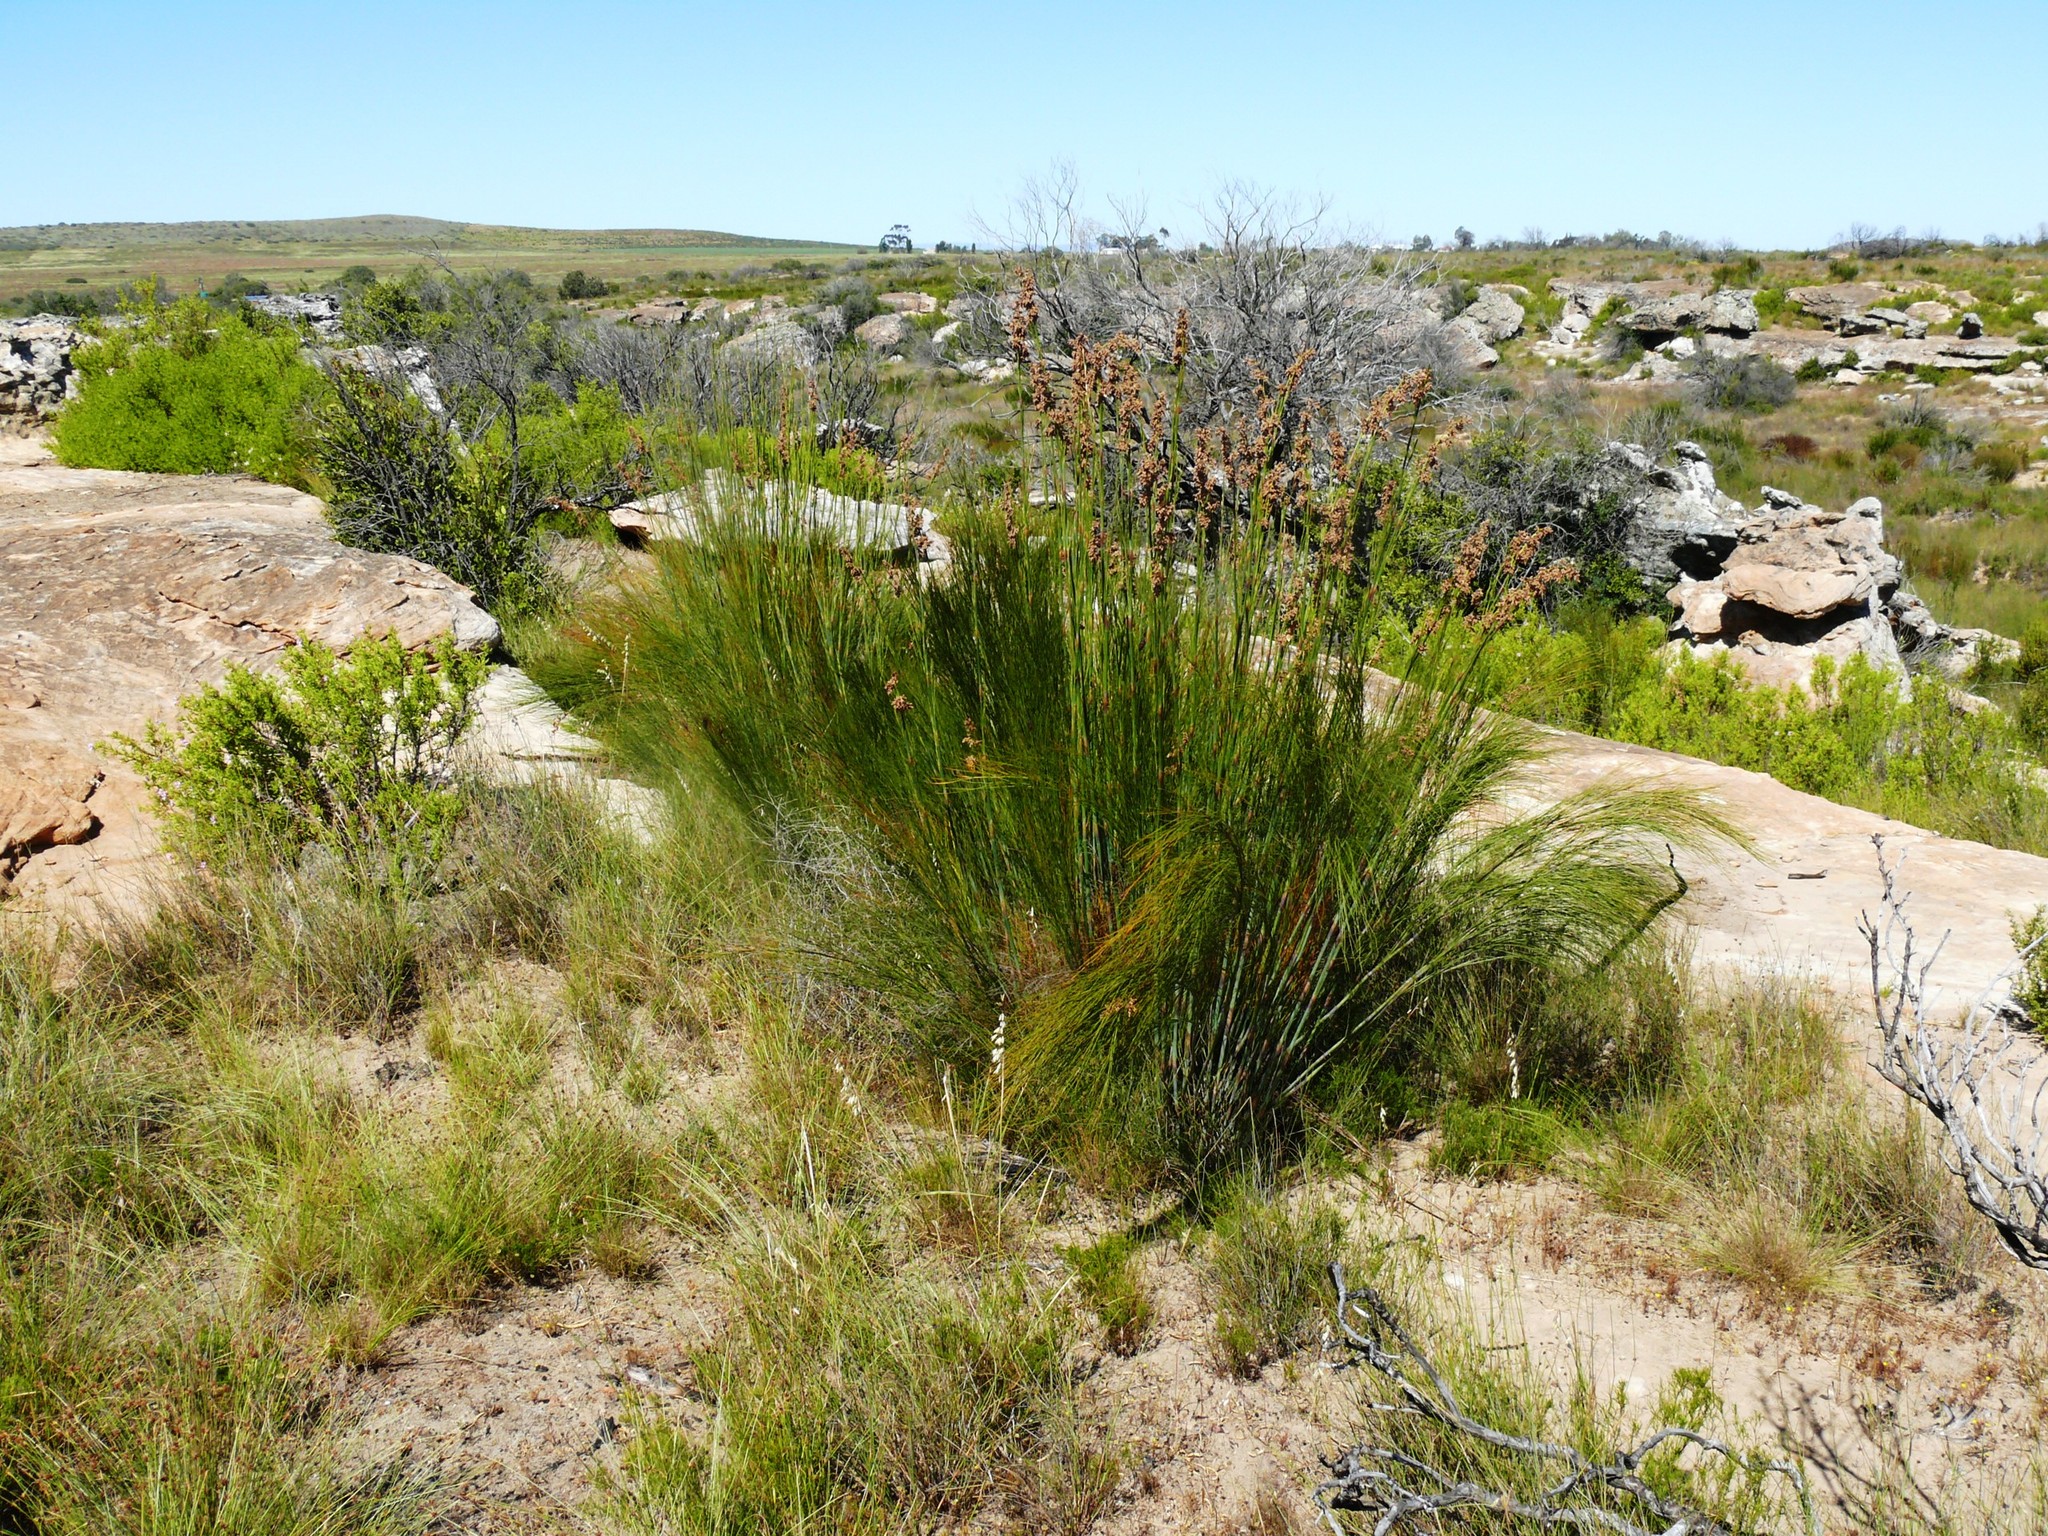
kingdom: Plantae
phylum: Tracheophyta
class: Liliopsida
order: Poales
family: Restionaceae
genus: Cannomois
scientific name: Cannomois robusta
